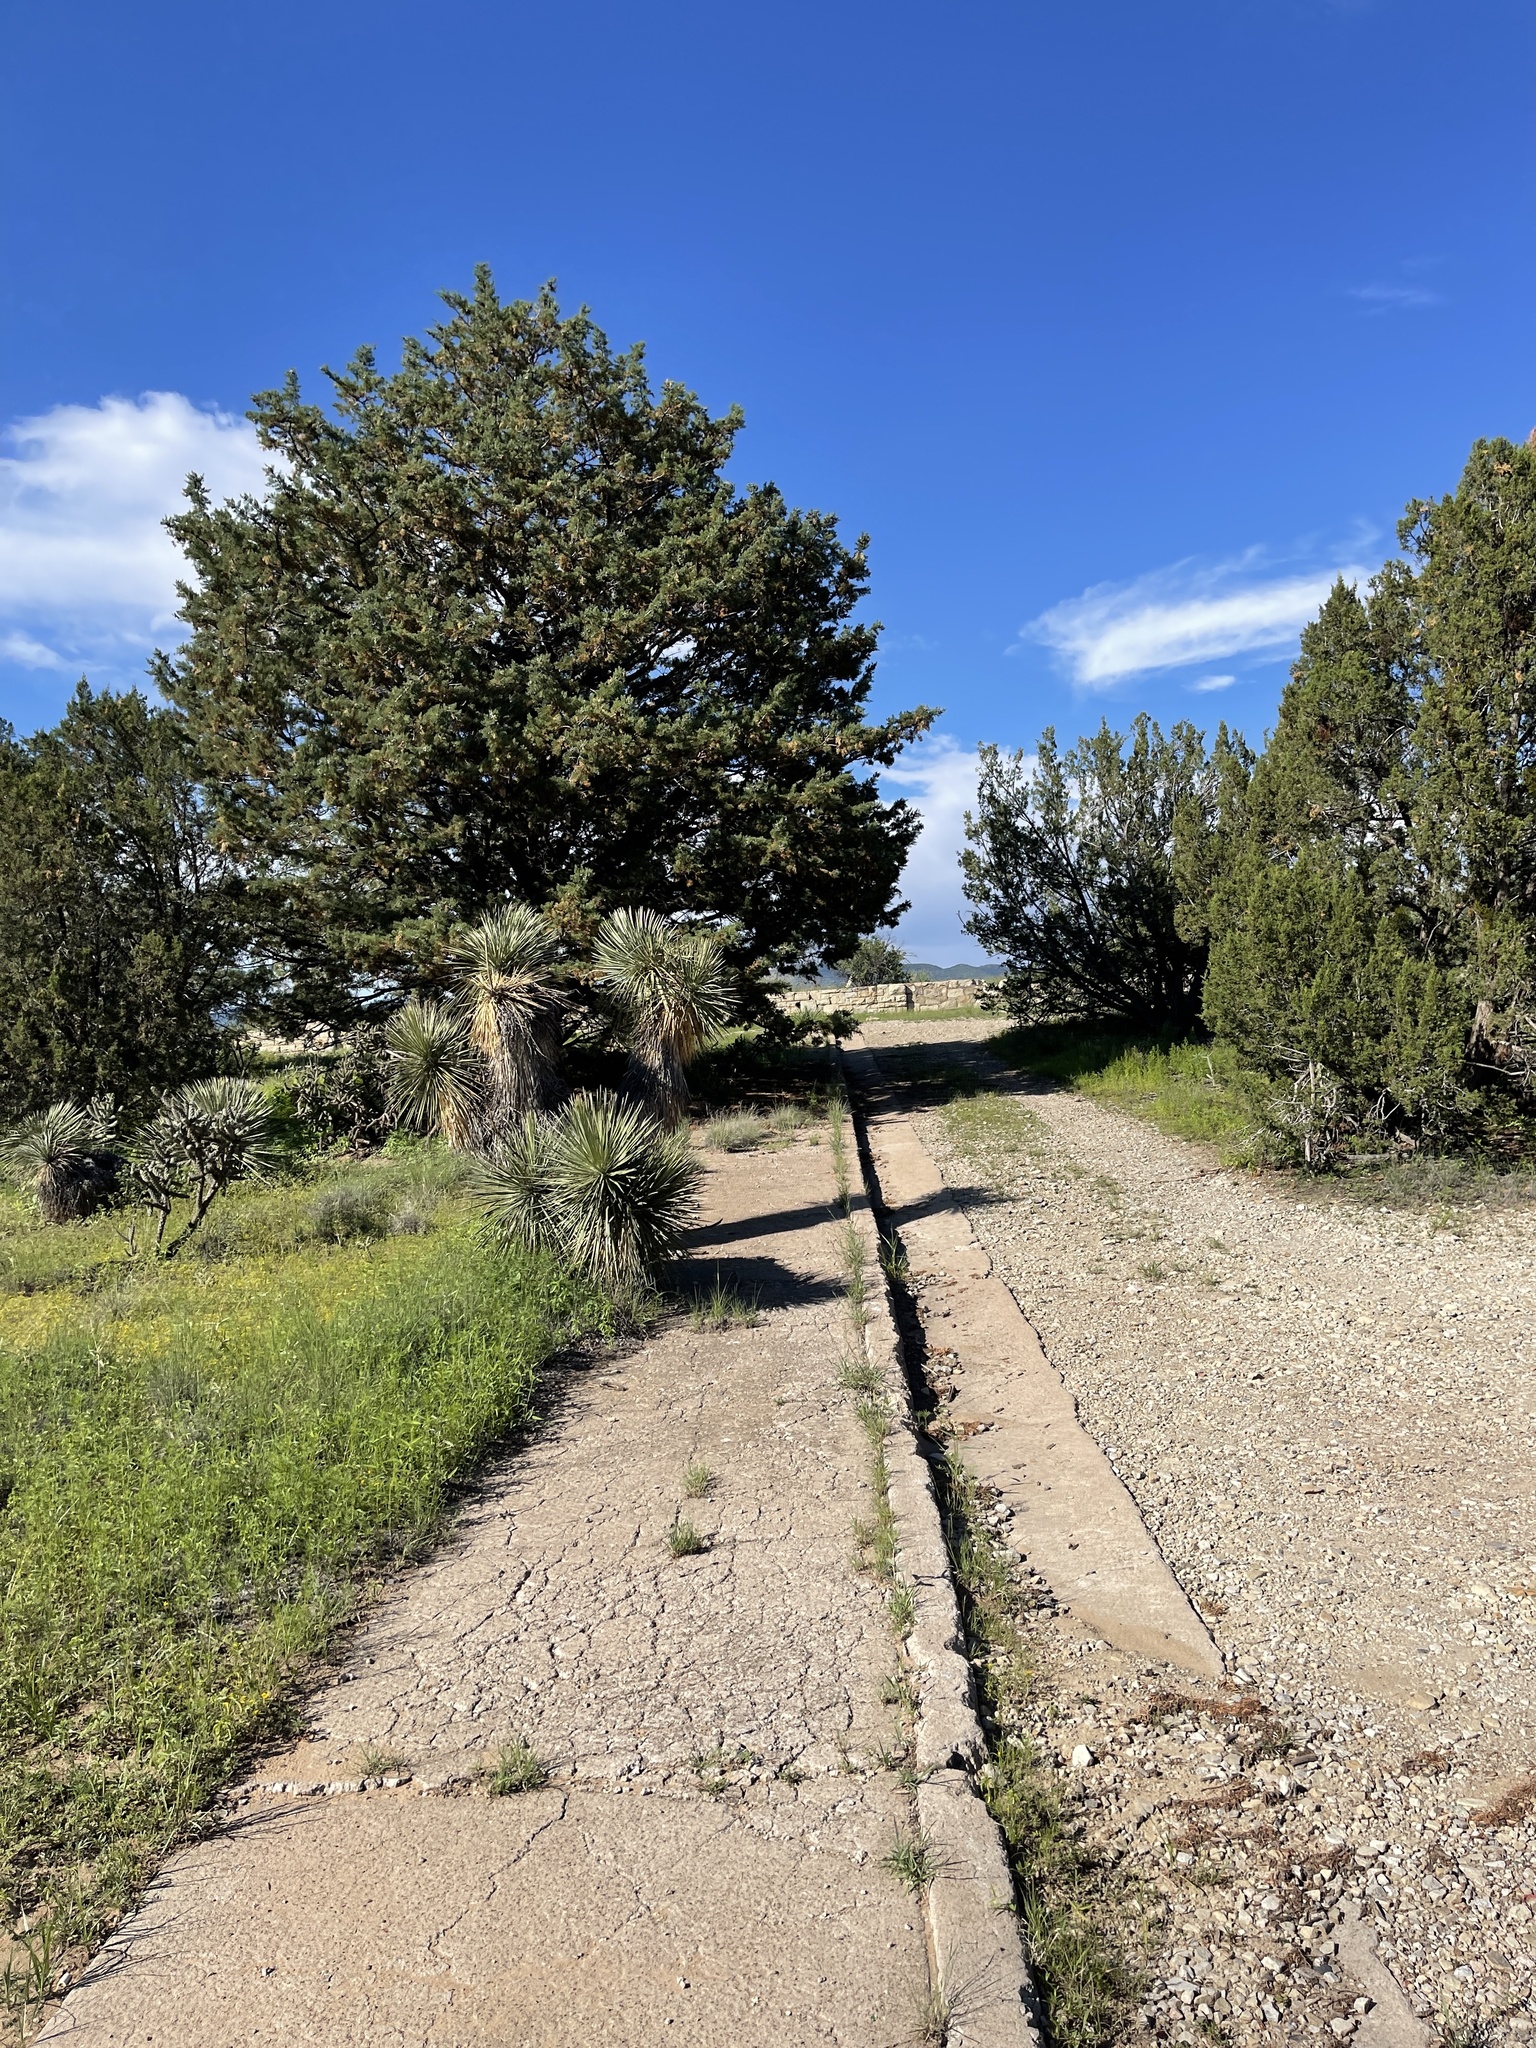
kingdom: Plantae
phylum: Tracheophyta
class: Liliopsida
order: Asparagales
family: Asparagaceae
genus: Yucca
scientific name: Yucca elata
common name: Palmella
